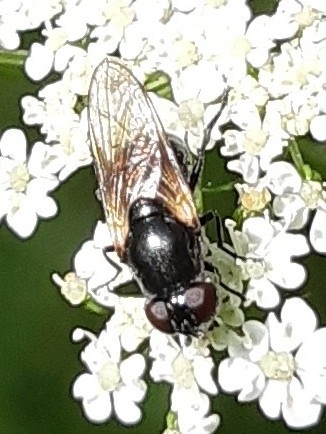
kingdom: Animalia
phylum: Arthropoda
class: Insecta
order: Diptera
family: Syrphidae
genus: Cheilosia
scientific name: Cheilosia
